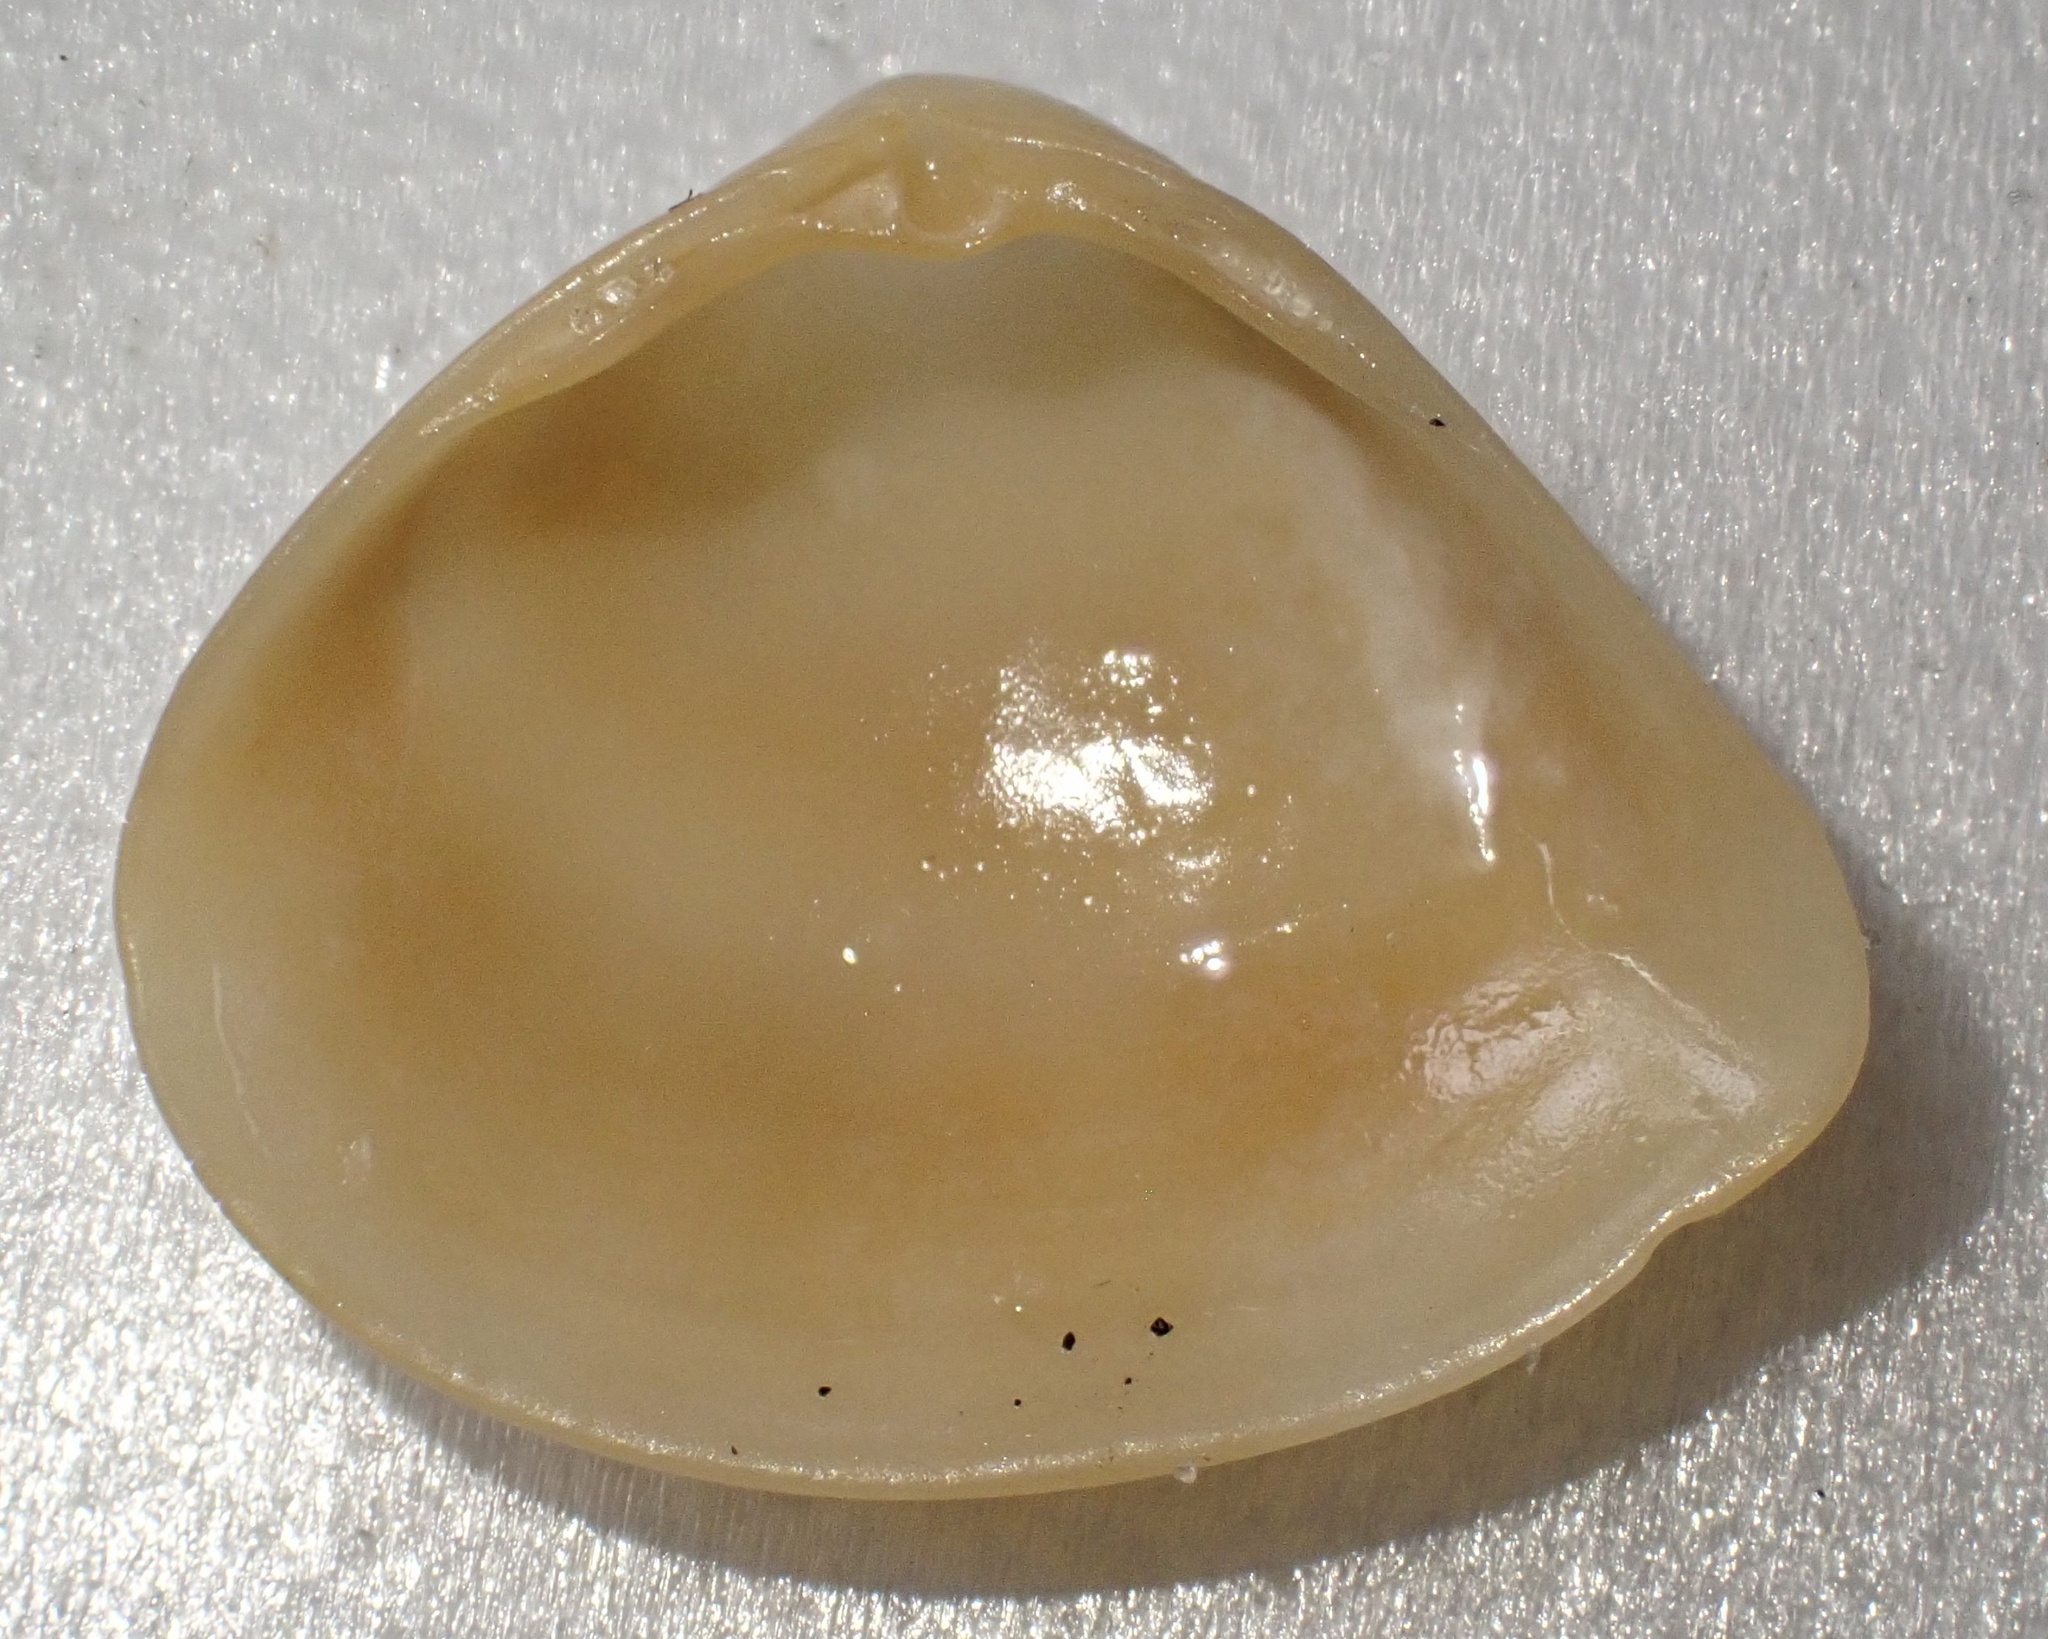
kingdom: Animalia
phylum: Mollusca
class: Bivalvia
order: Venerida
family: Mactridae
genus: Mulinia
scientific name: Mulinia lateralis
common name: Dwarf surfclam
